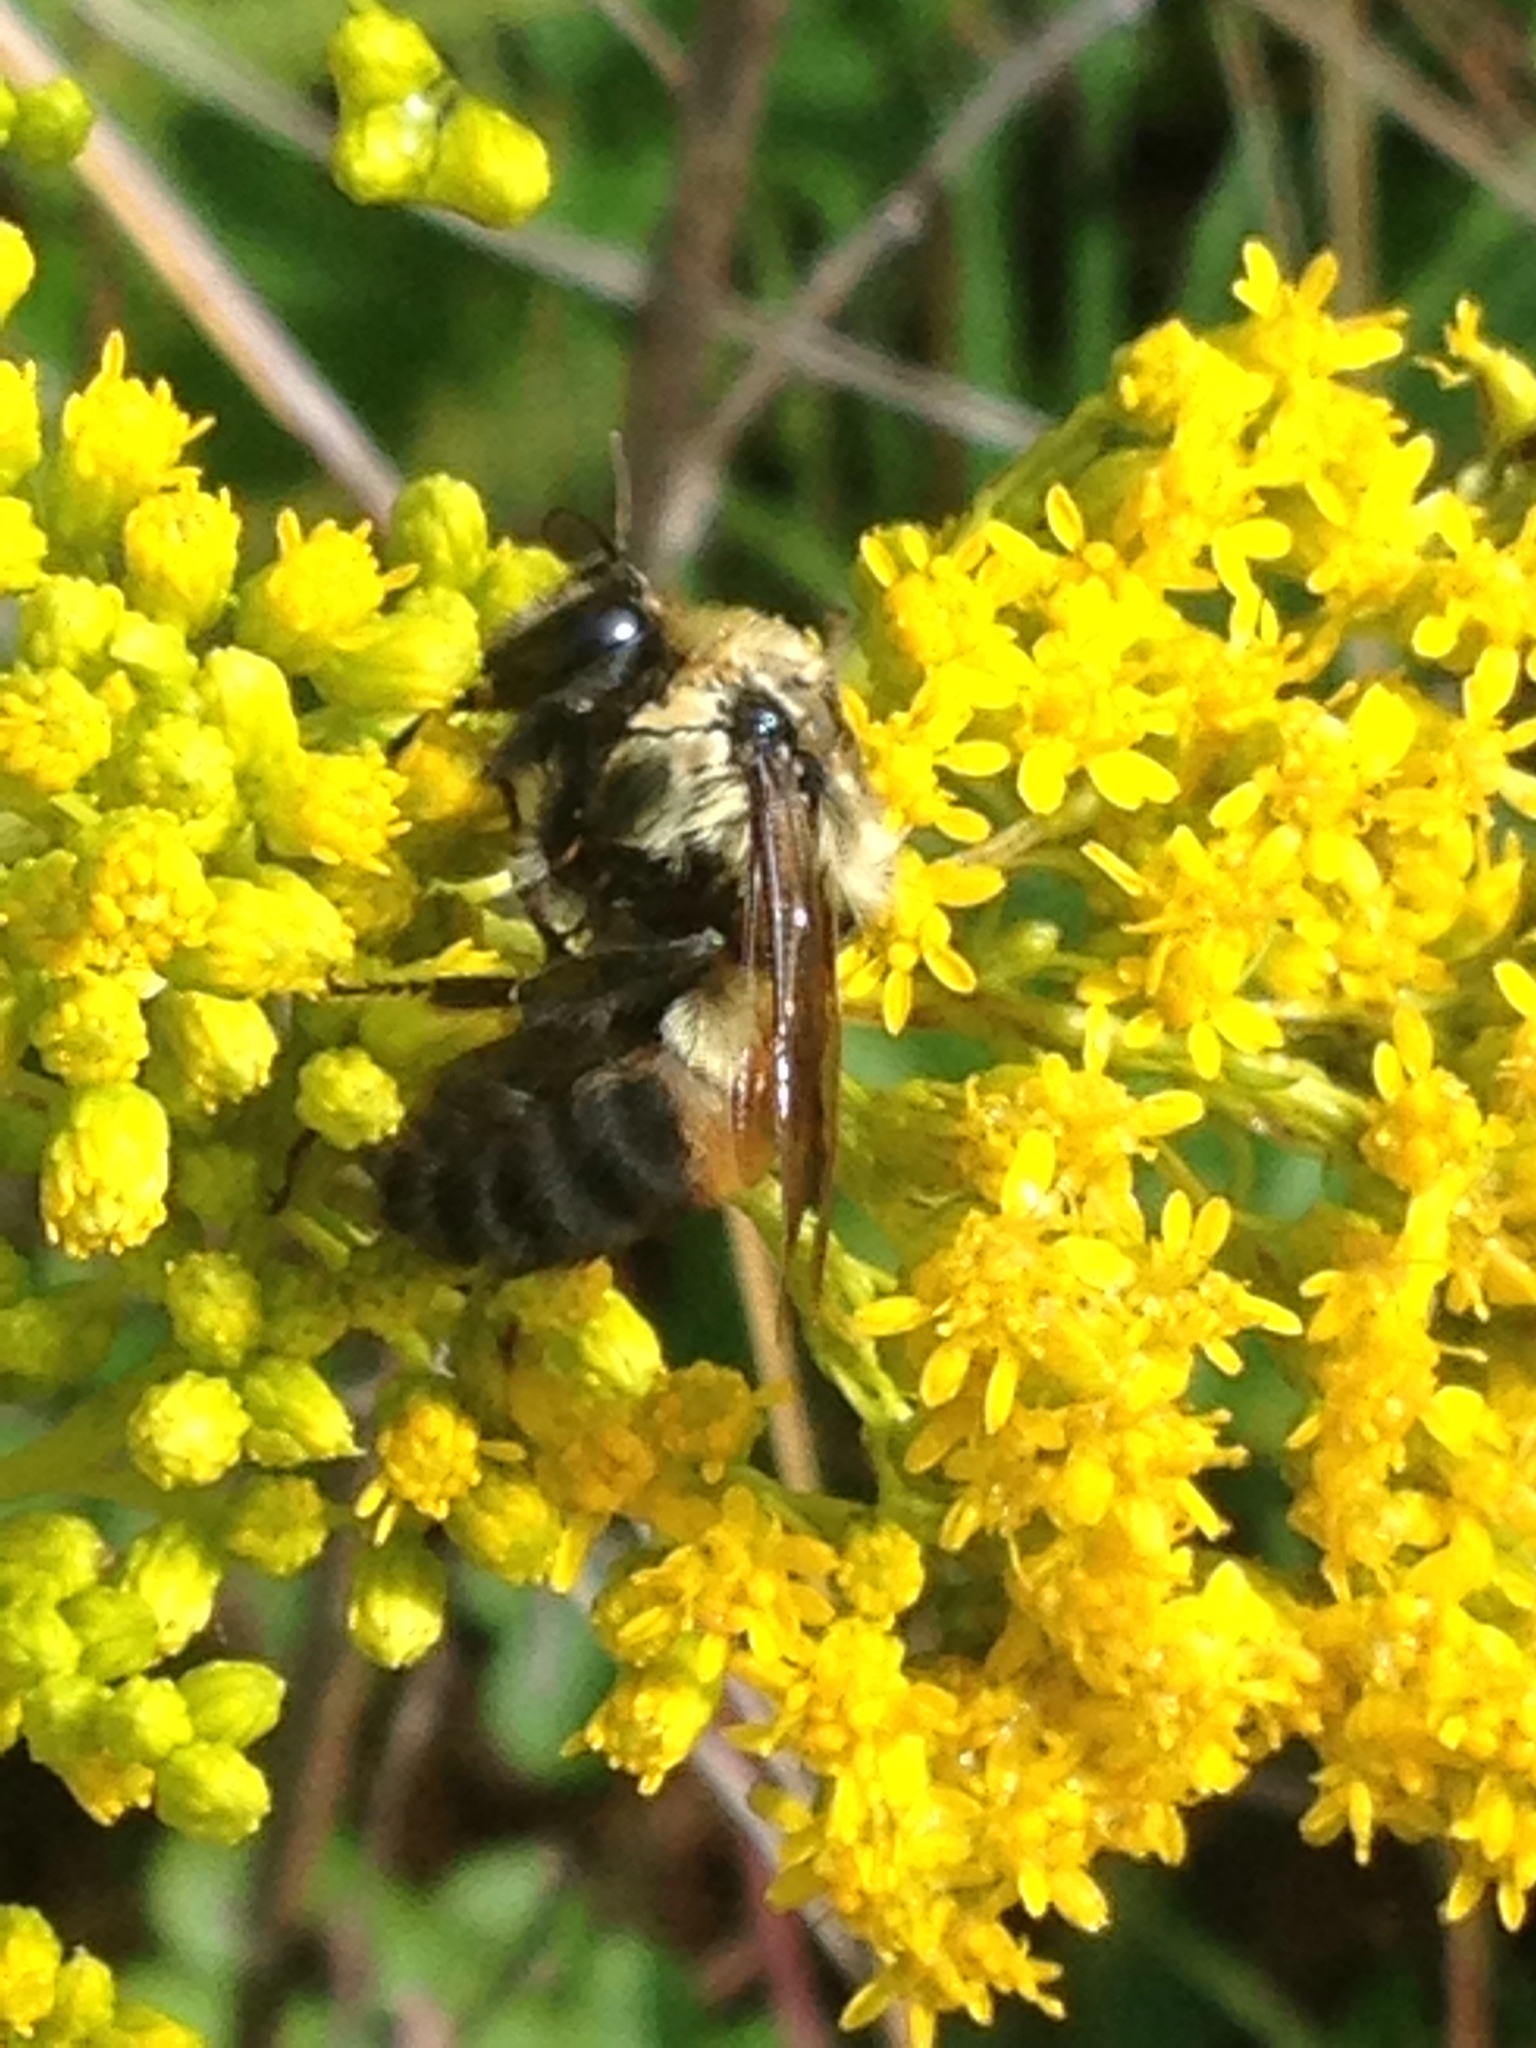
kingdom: Animalia
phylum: Arthropoda
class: Insecta
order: Hymenoptera
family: Apidae
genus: Bombus
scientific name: Bombus griseocollis
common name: Brown-belted bumble bee
